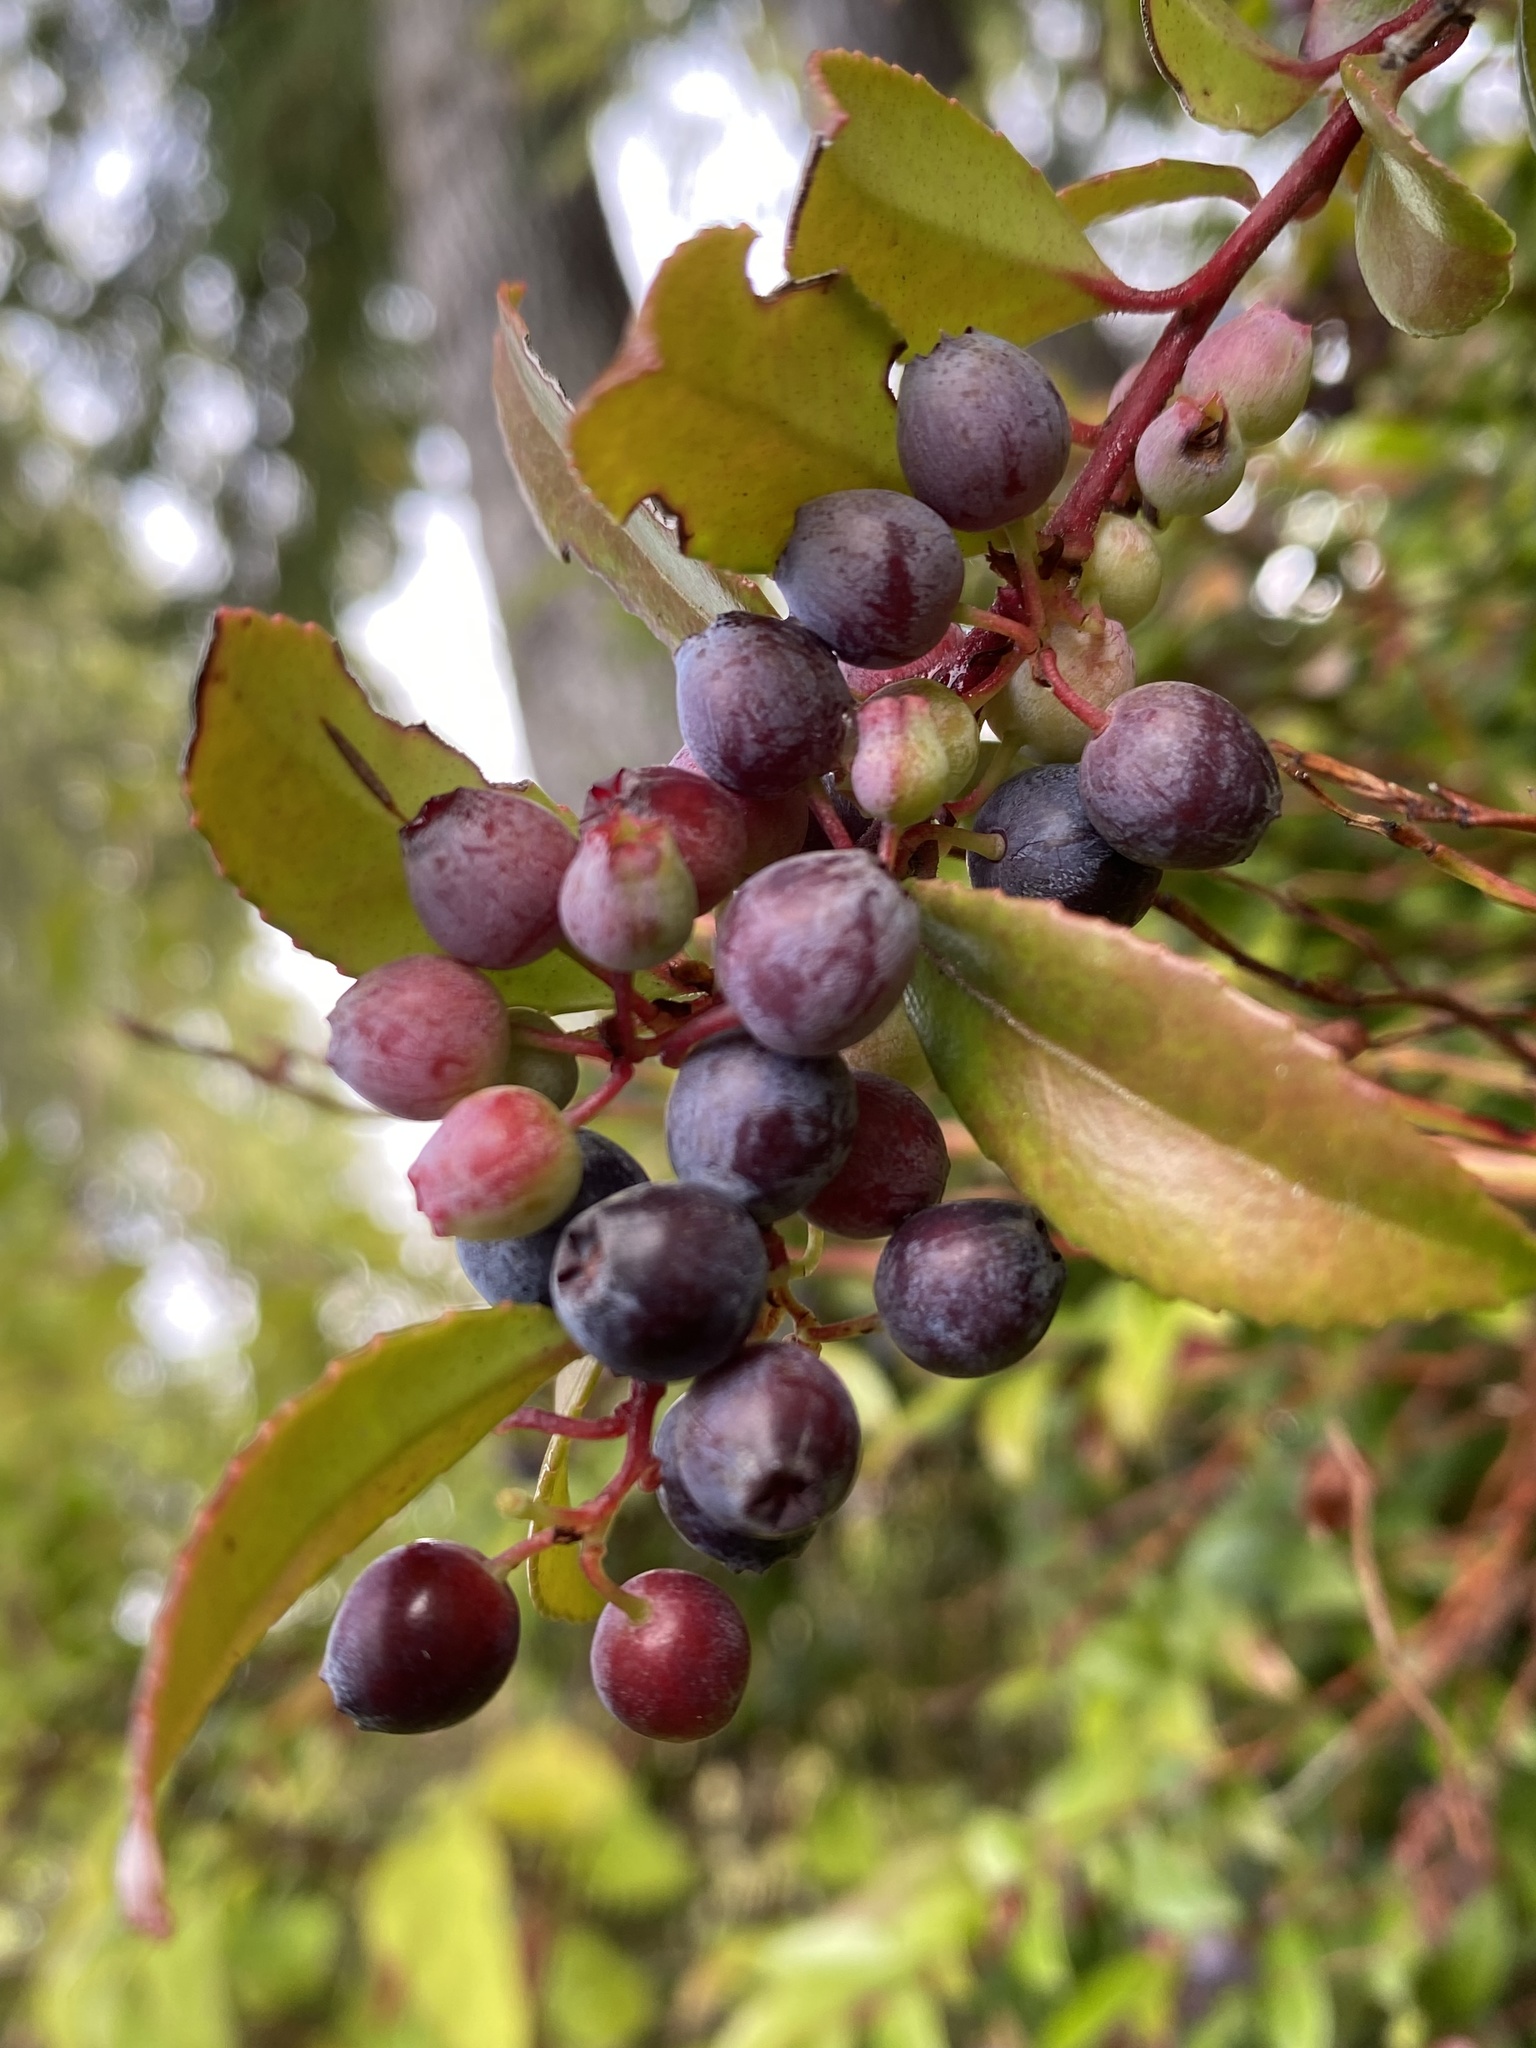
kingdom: Plantae
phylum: Tracheophyta
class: Magnoliopsida
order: Ericales
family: Ericaceae
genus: Vaccinium
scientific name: Vaccinium ovatum
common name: California-huckleberry
